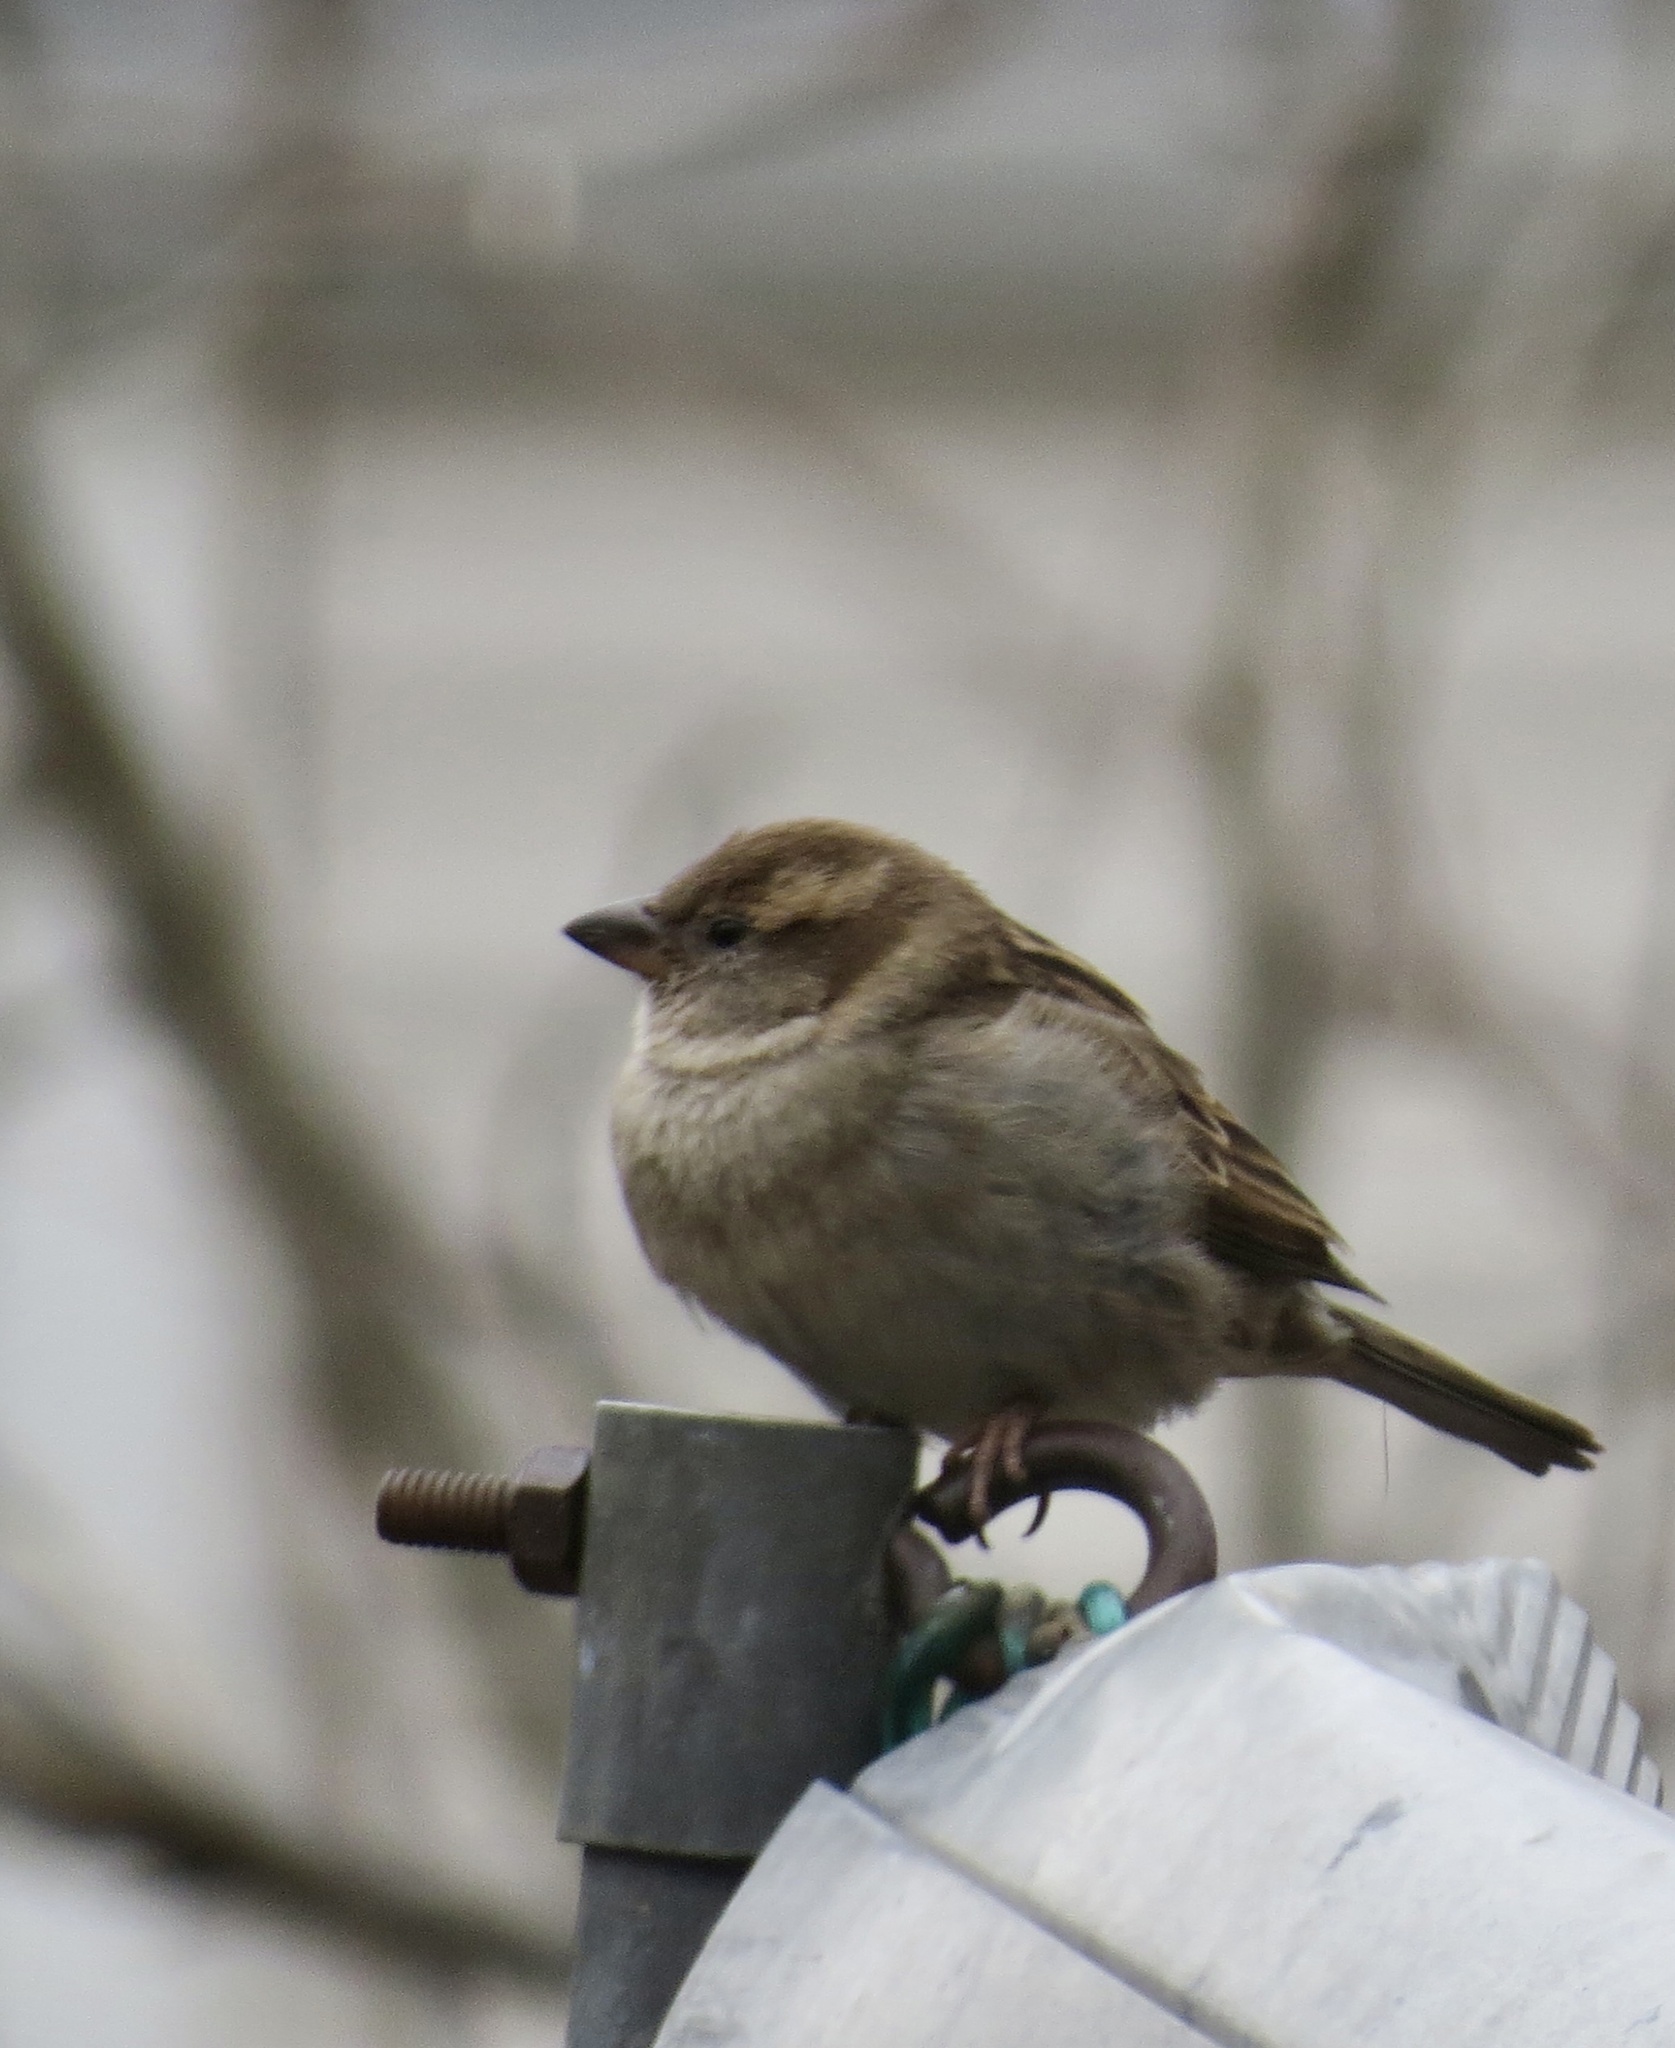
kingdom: Animalia
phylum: Chordata
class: Aves
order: Passeriformes
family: Passeridae
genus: Passer
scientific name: Passer domesticus
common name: House sparrow
